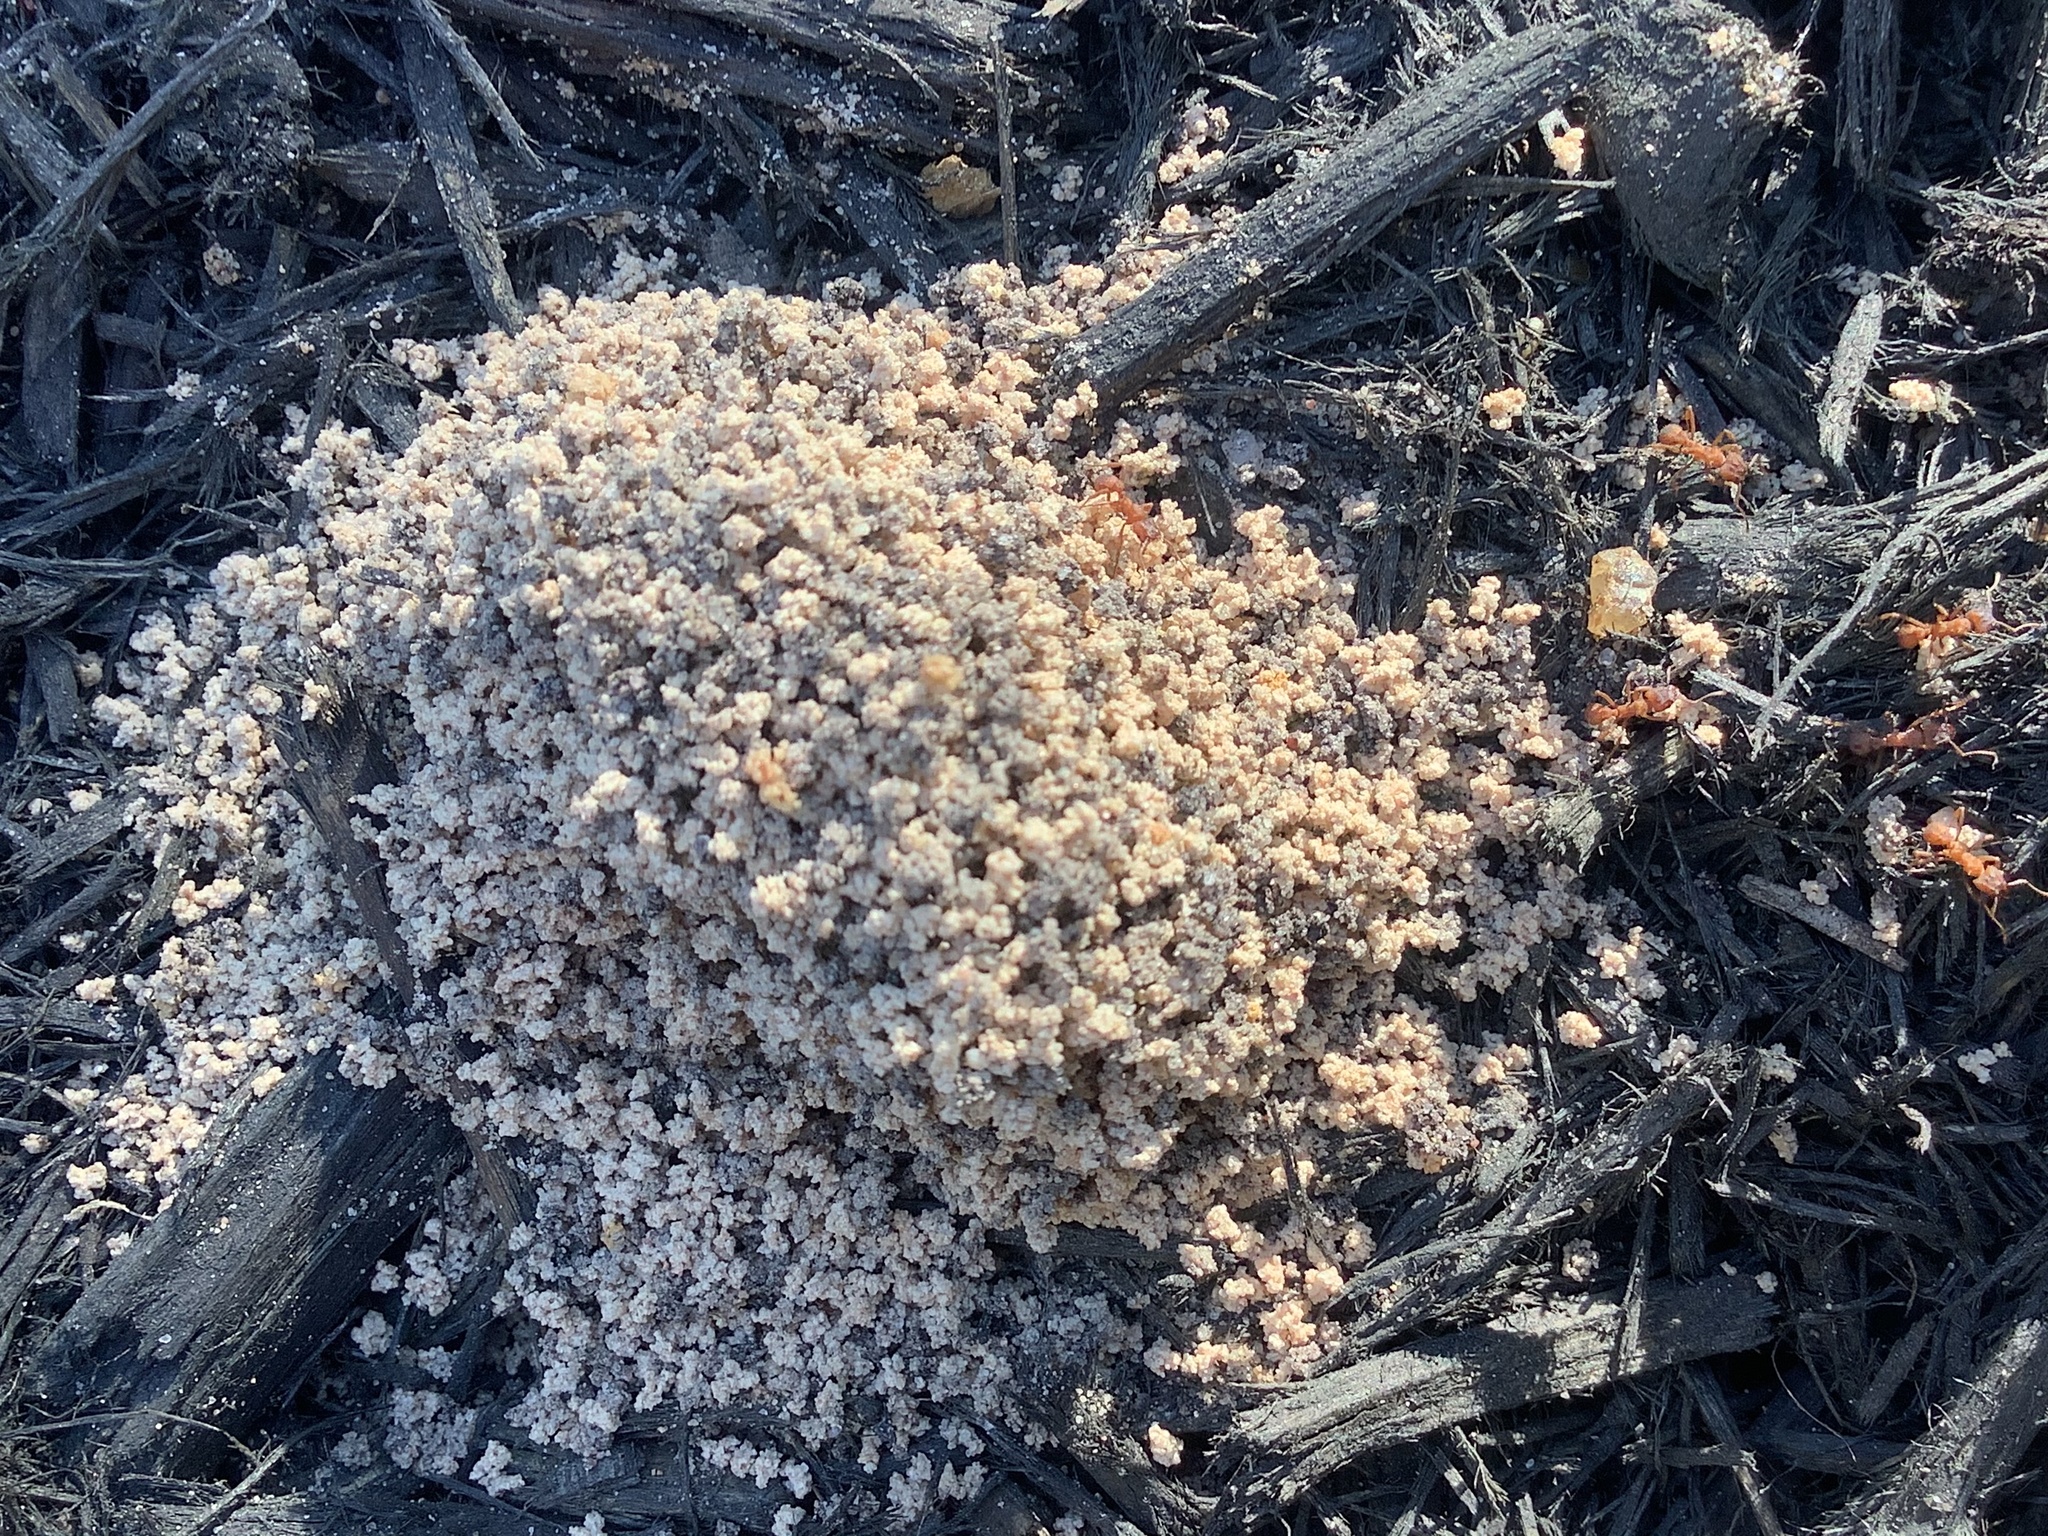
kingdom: Animalia
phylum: Arthropoda
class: Insecta
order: Hymenoptera
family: Formicidae
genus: Trachymyrmex
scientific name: Trachymyrmex septentrionalis
